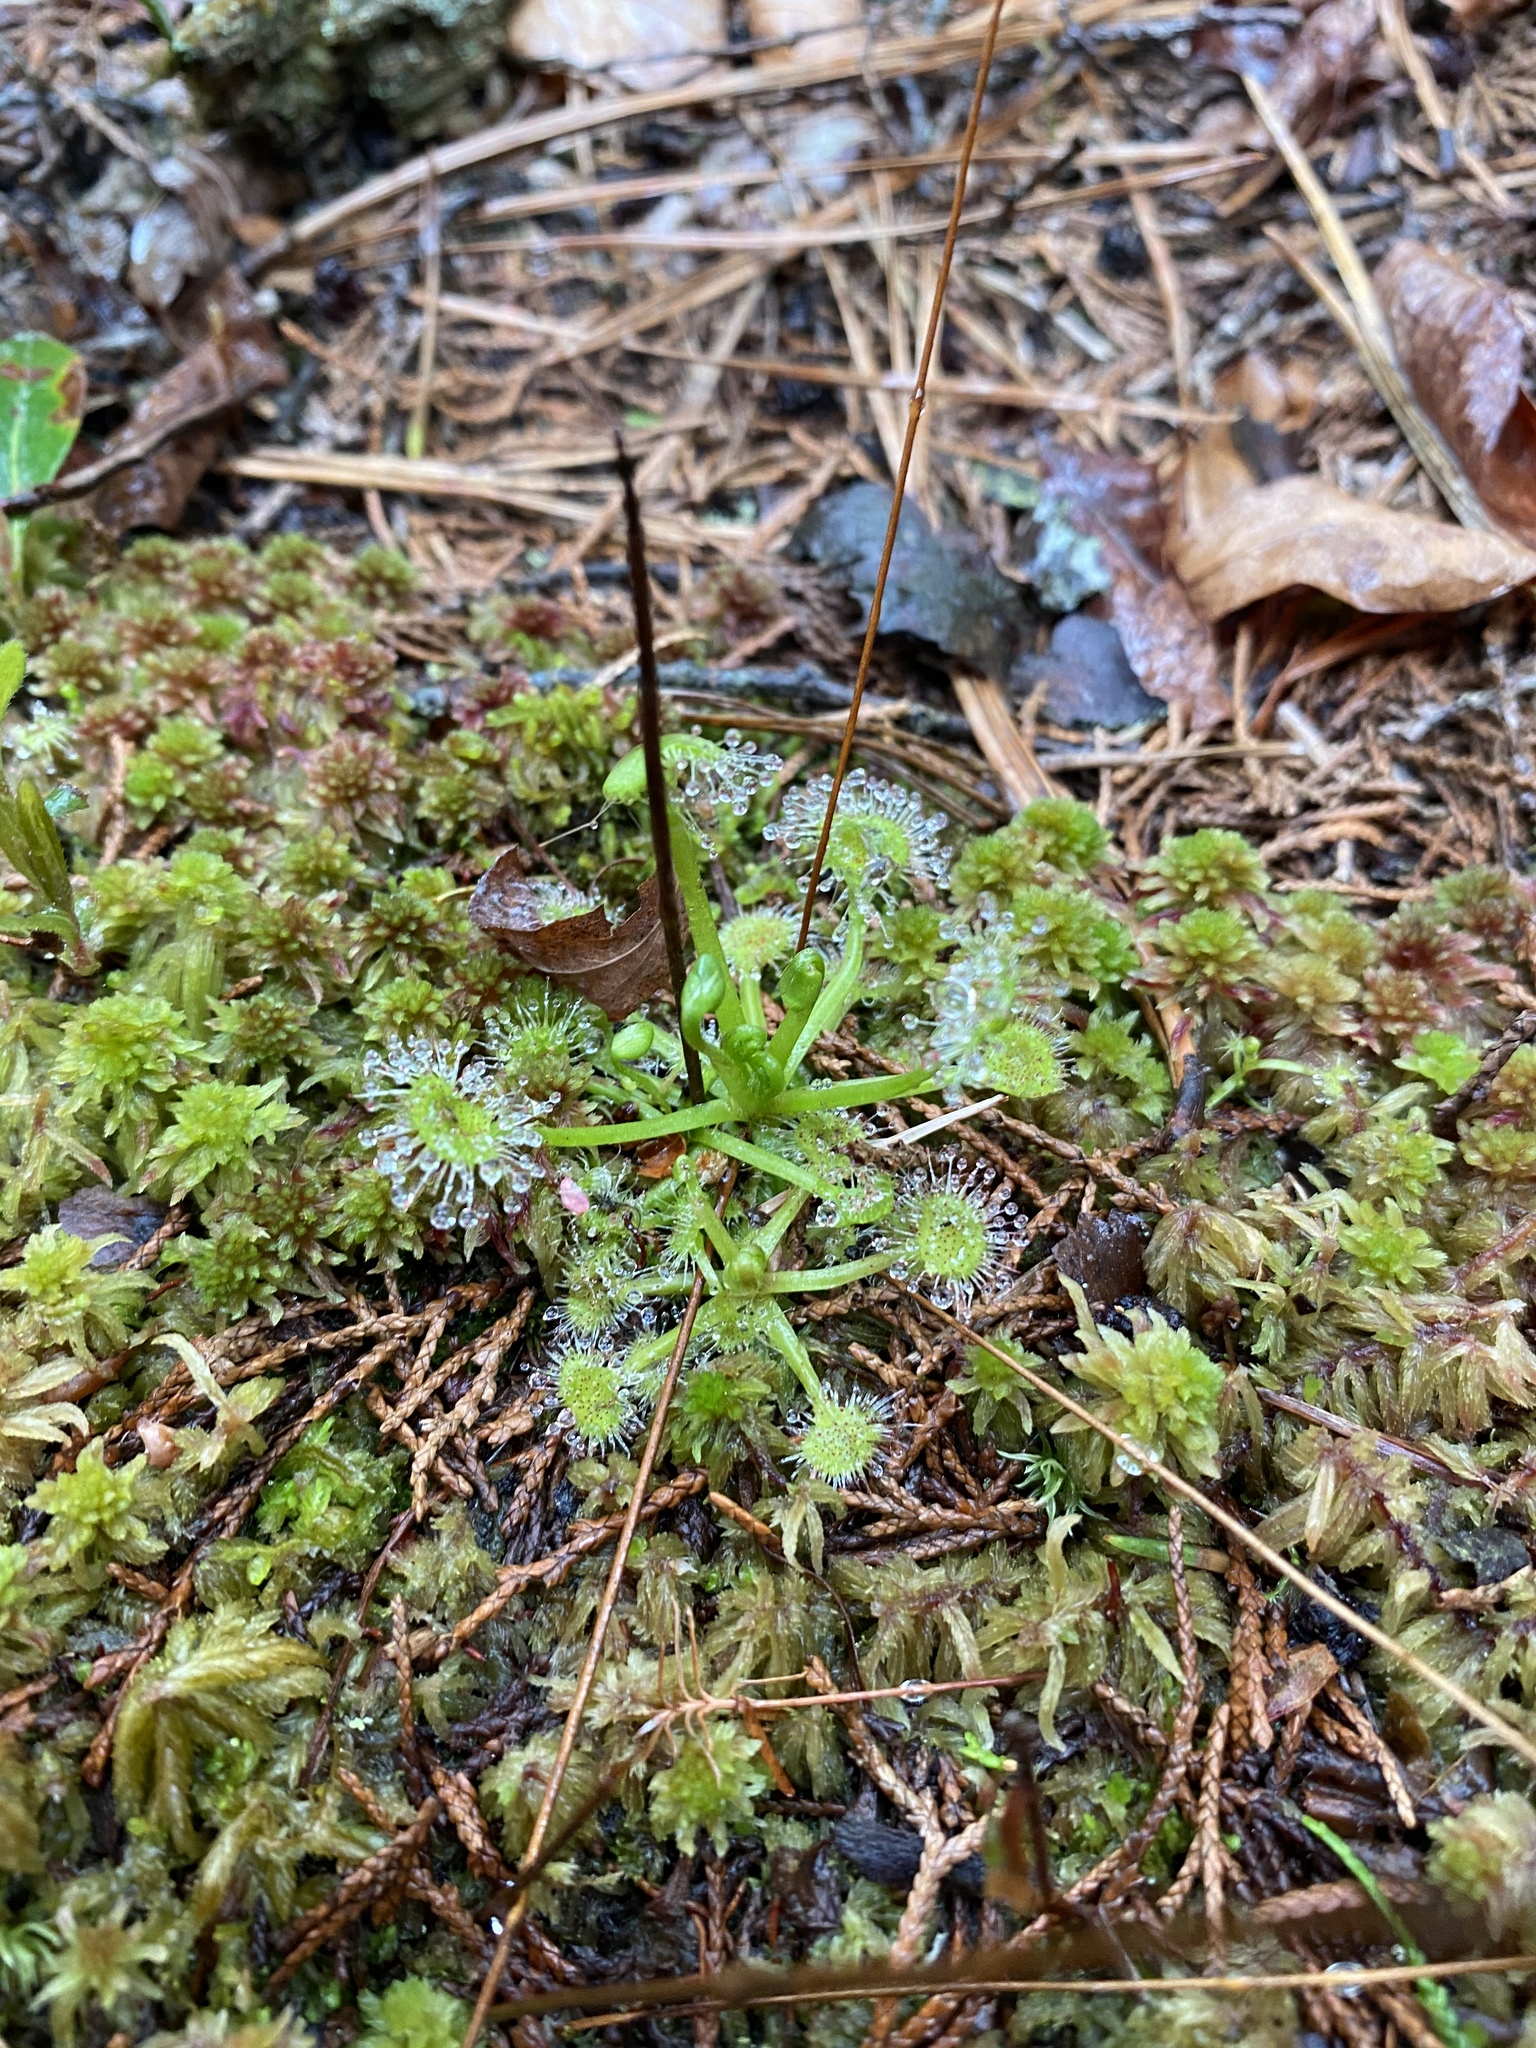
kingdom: Plantae
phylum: Tracheophyta
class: Magnoliopsida
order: Caryophyllales
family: Droseraceae
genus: Drosera
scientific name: Drosera rotundifolia
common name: Round-leaved sundew
